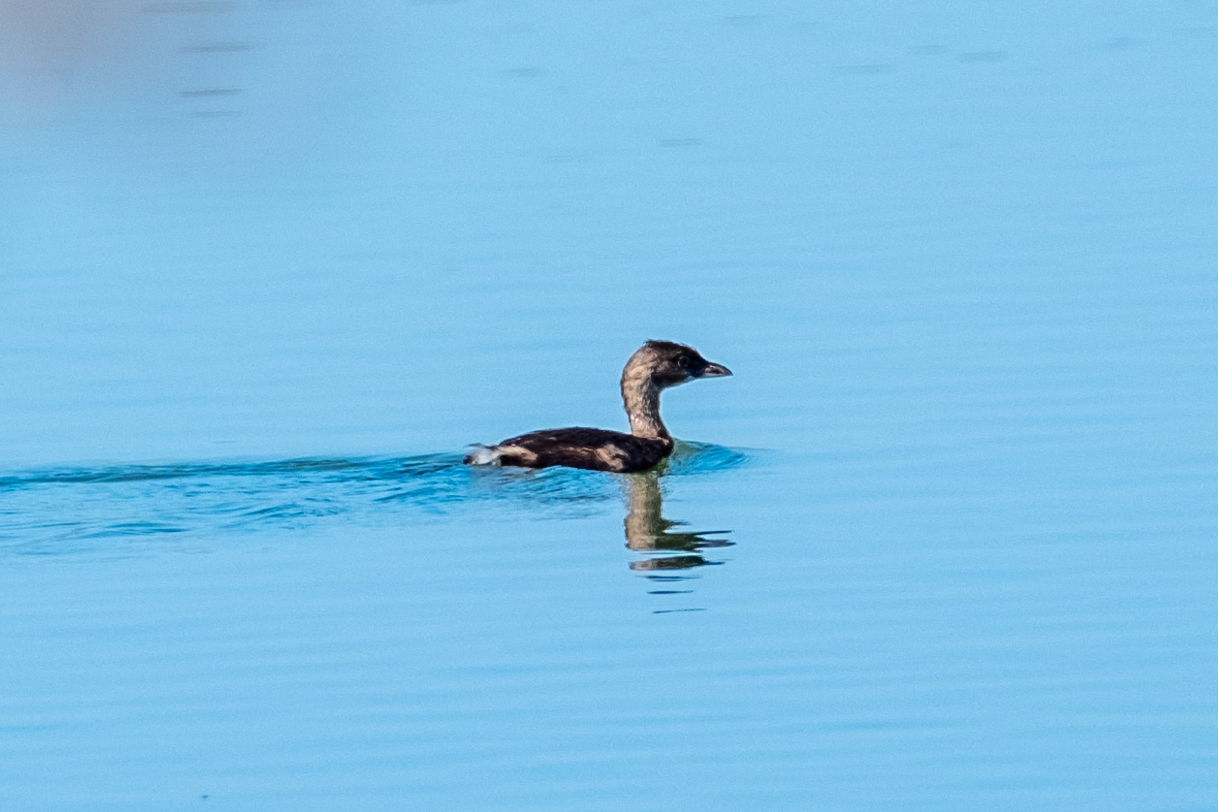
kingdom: Animalia
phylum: Chordata
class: Aves
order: Podicipediformes
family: Podicipedidae
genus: Podilymbus
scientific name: Podilymbus podiceps
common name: Pied-billed grebe
